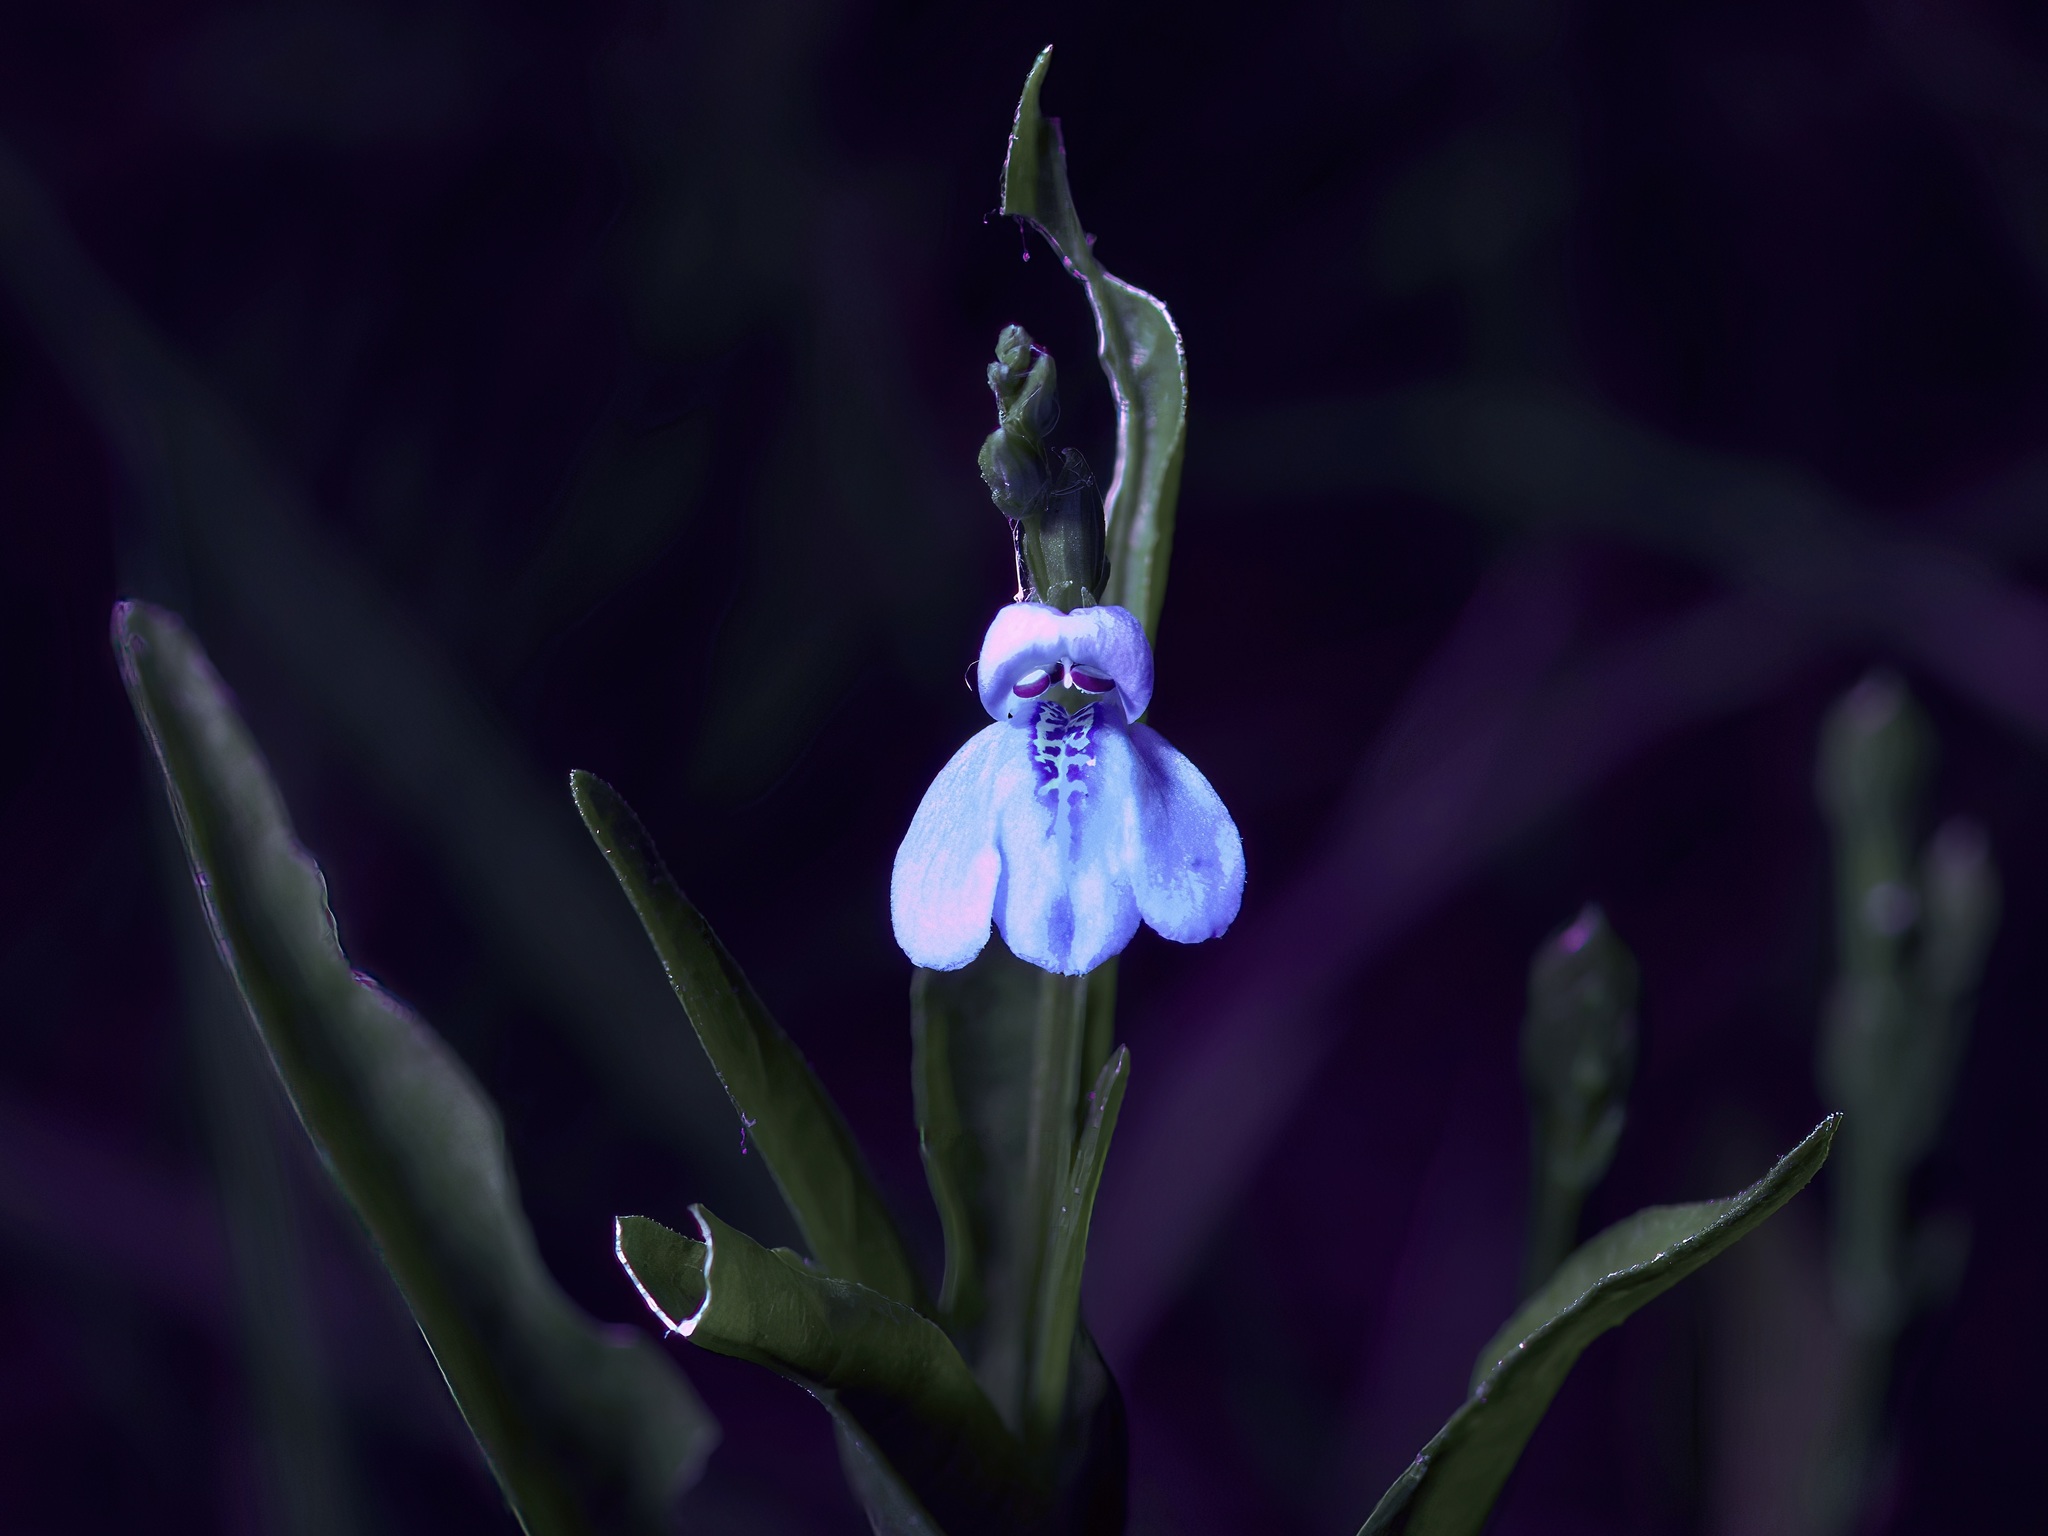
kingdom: Plantae
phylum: Tracheophyta
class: Magnoliopsida
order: Lamiales
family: Acanthaceae
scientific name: Acanthaceae
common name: Acanthaceae
